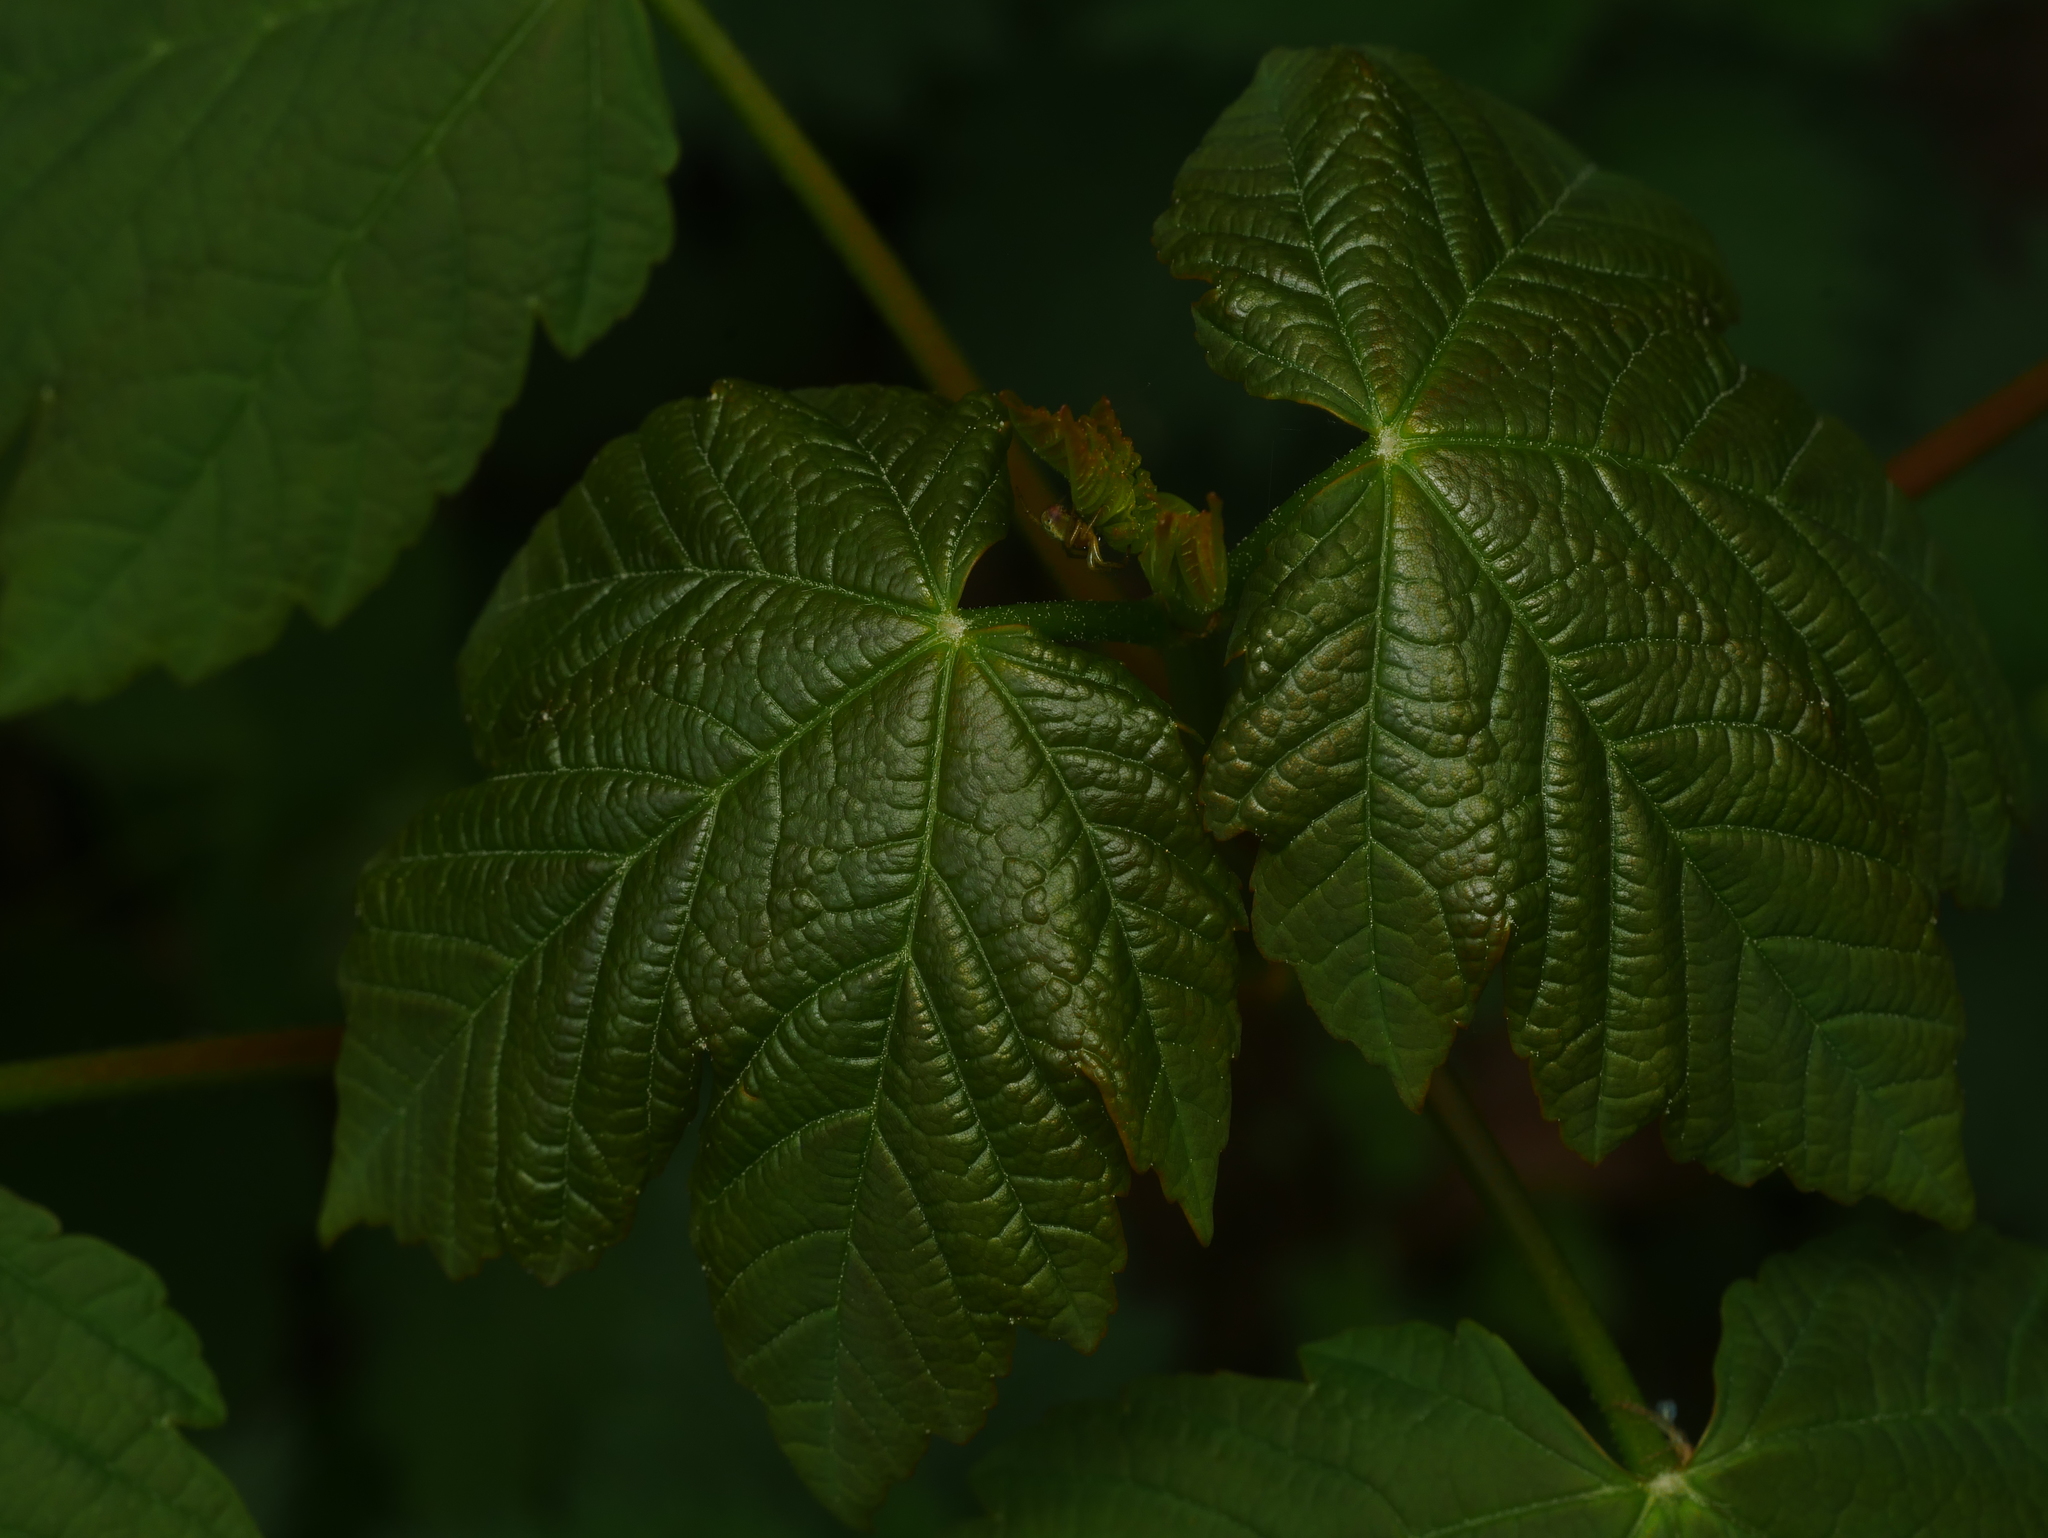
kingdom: Plantae
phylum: Tracheophyta
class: Magnoliopsida
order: Sapindales
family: Sapindaceae
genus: Acer
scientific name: Acer pseudoplatanus
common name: Sycamore
